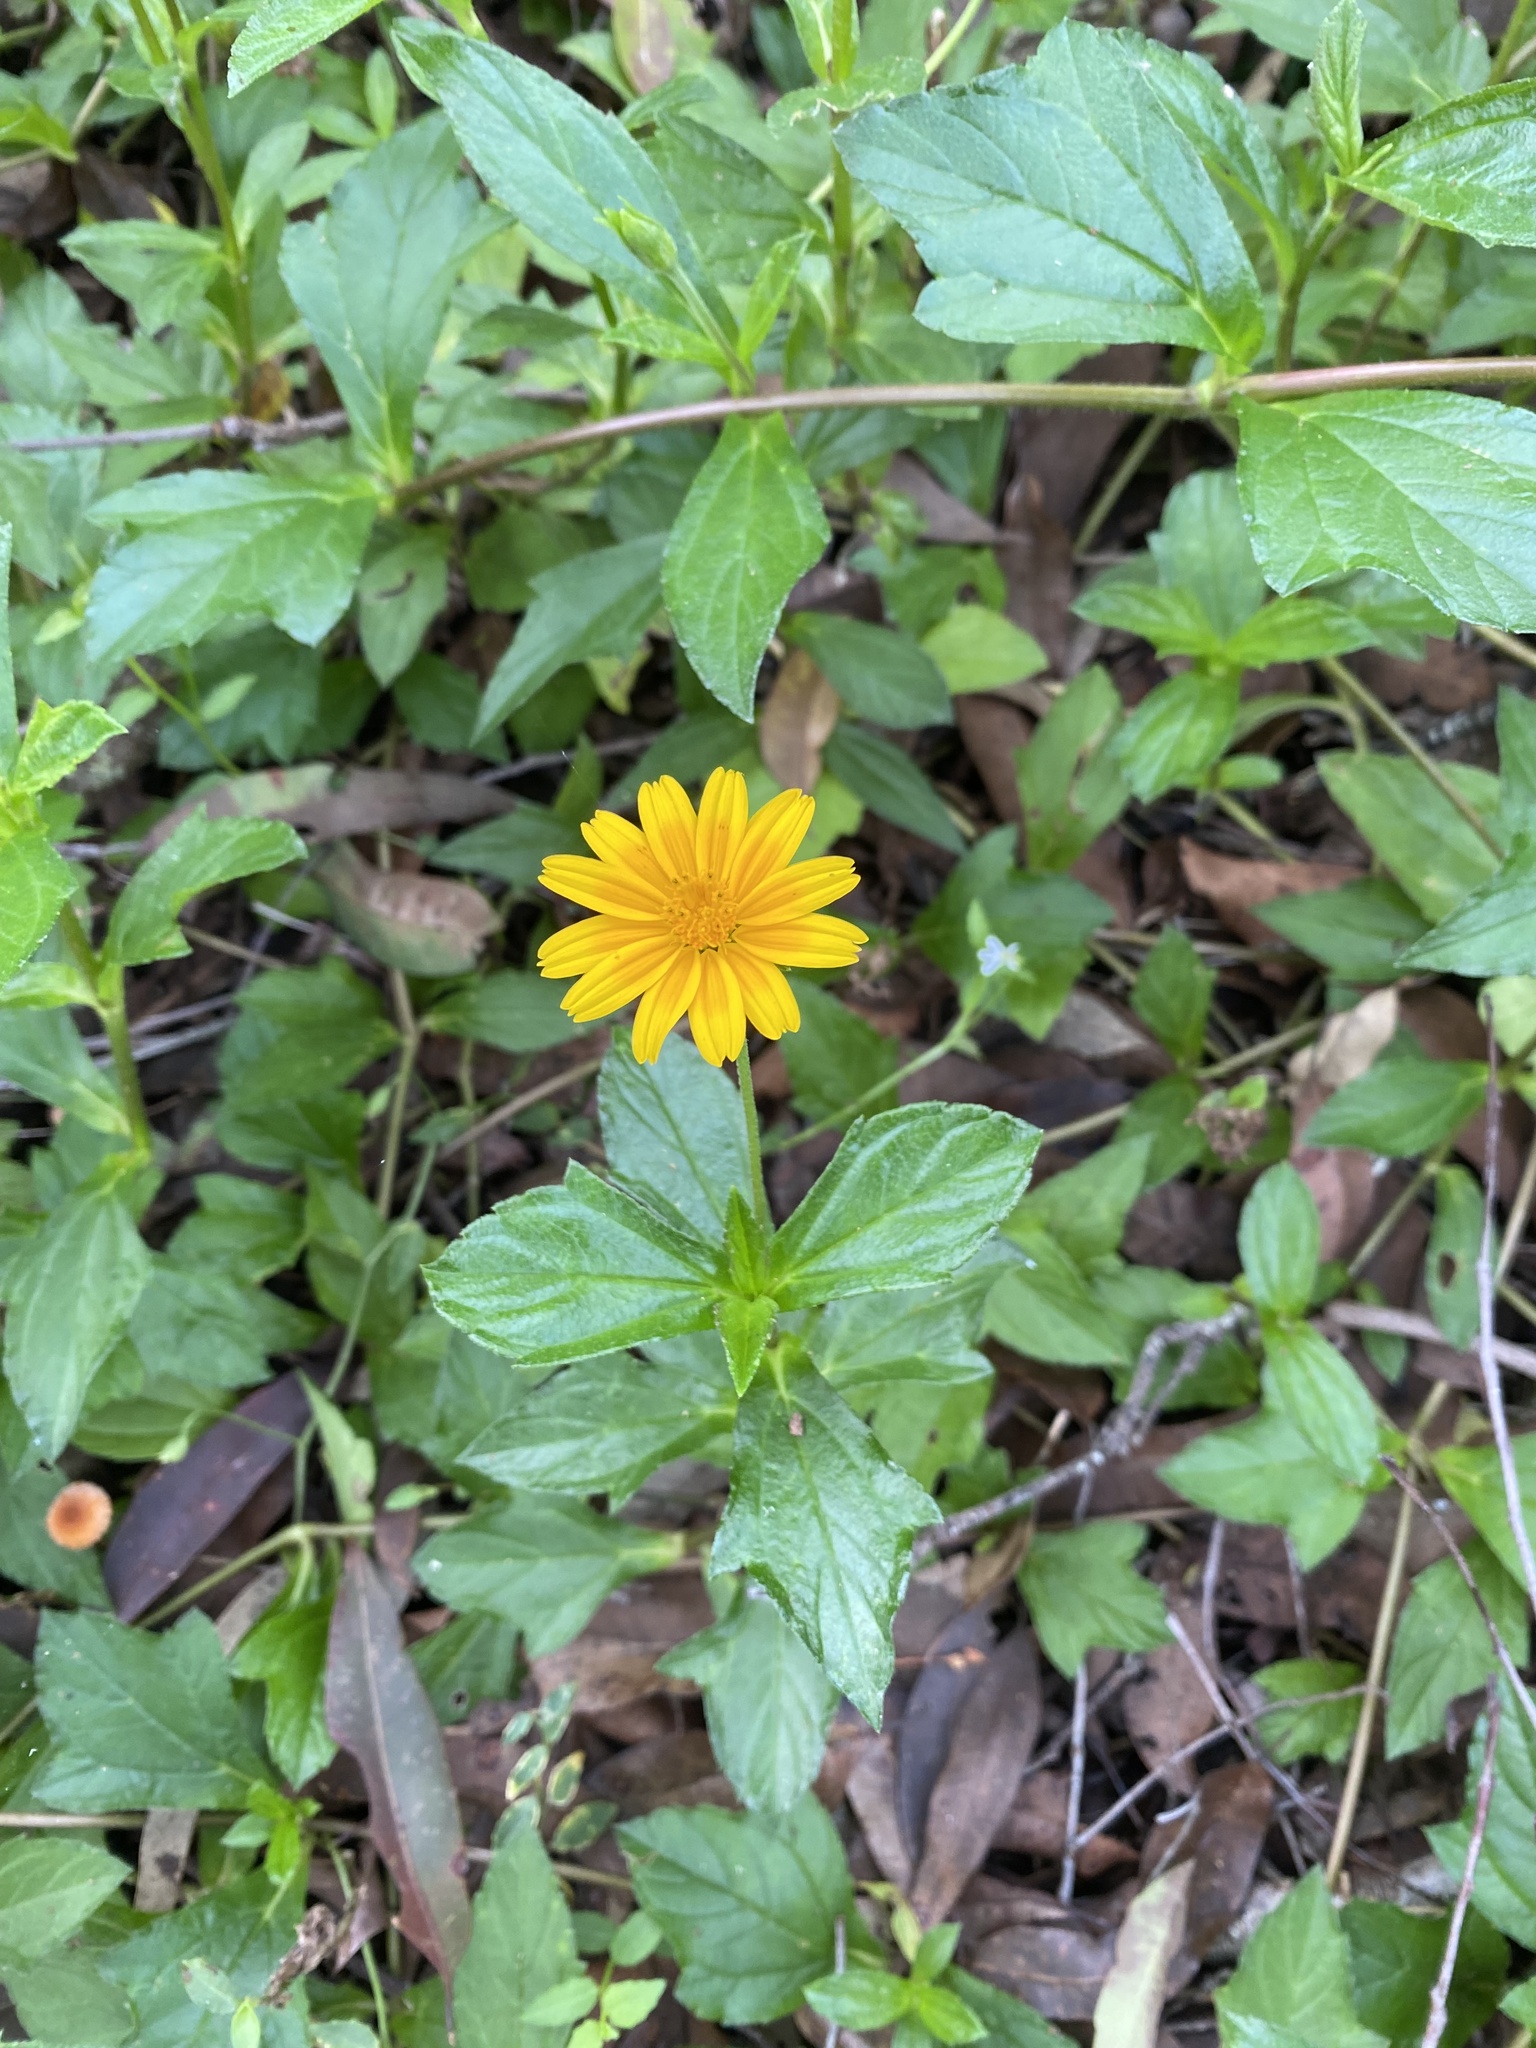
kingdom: Plantae
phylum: Tracheophyta
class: Magnoliopsida
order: Asterales
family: Asteraceae
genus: Sphagneticola
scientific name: Sphagneticola trilobata
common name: Bay biscayne creeping-oxeye
